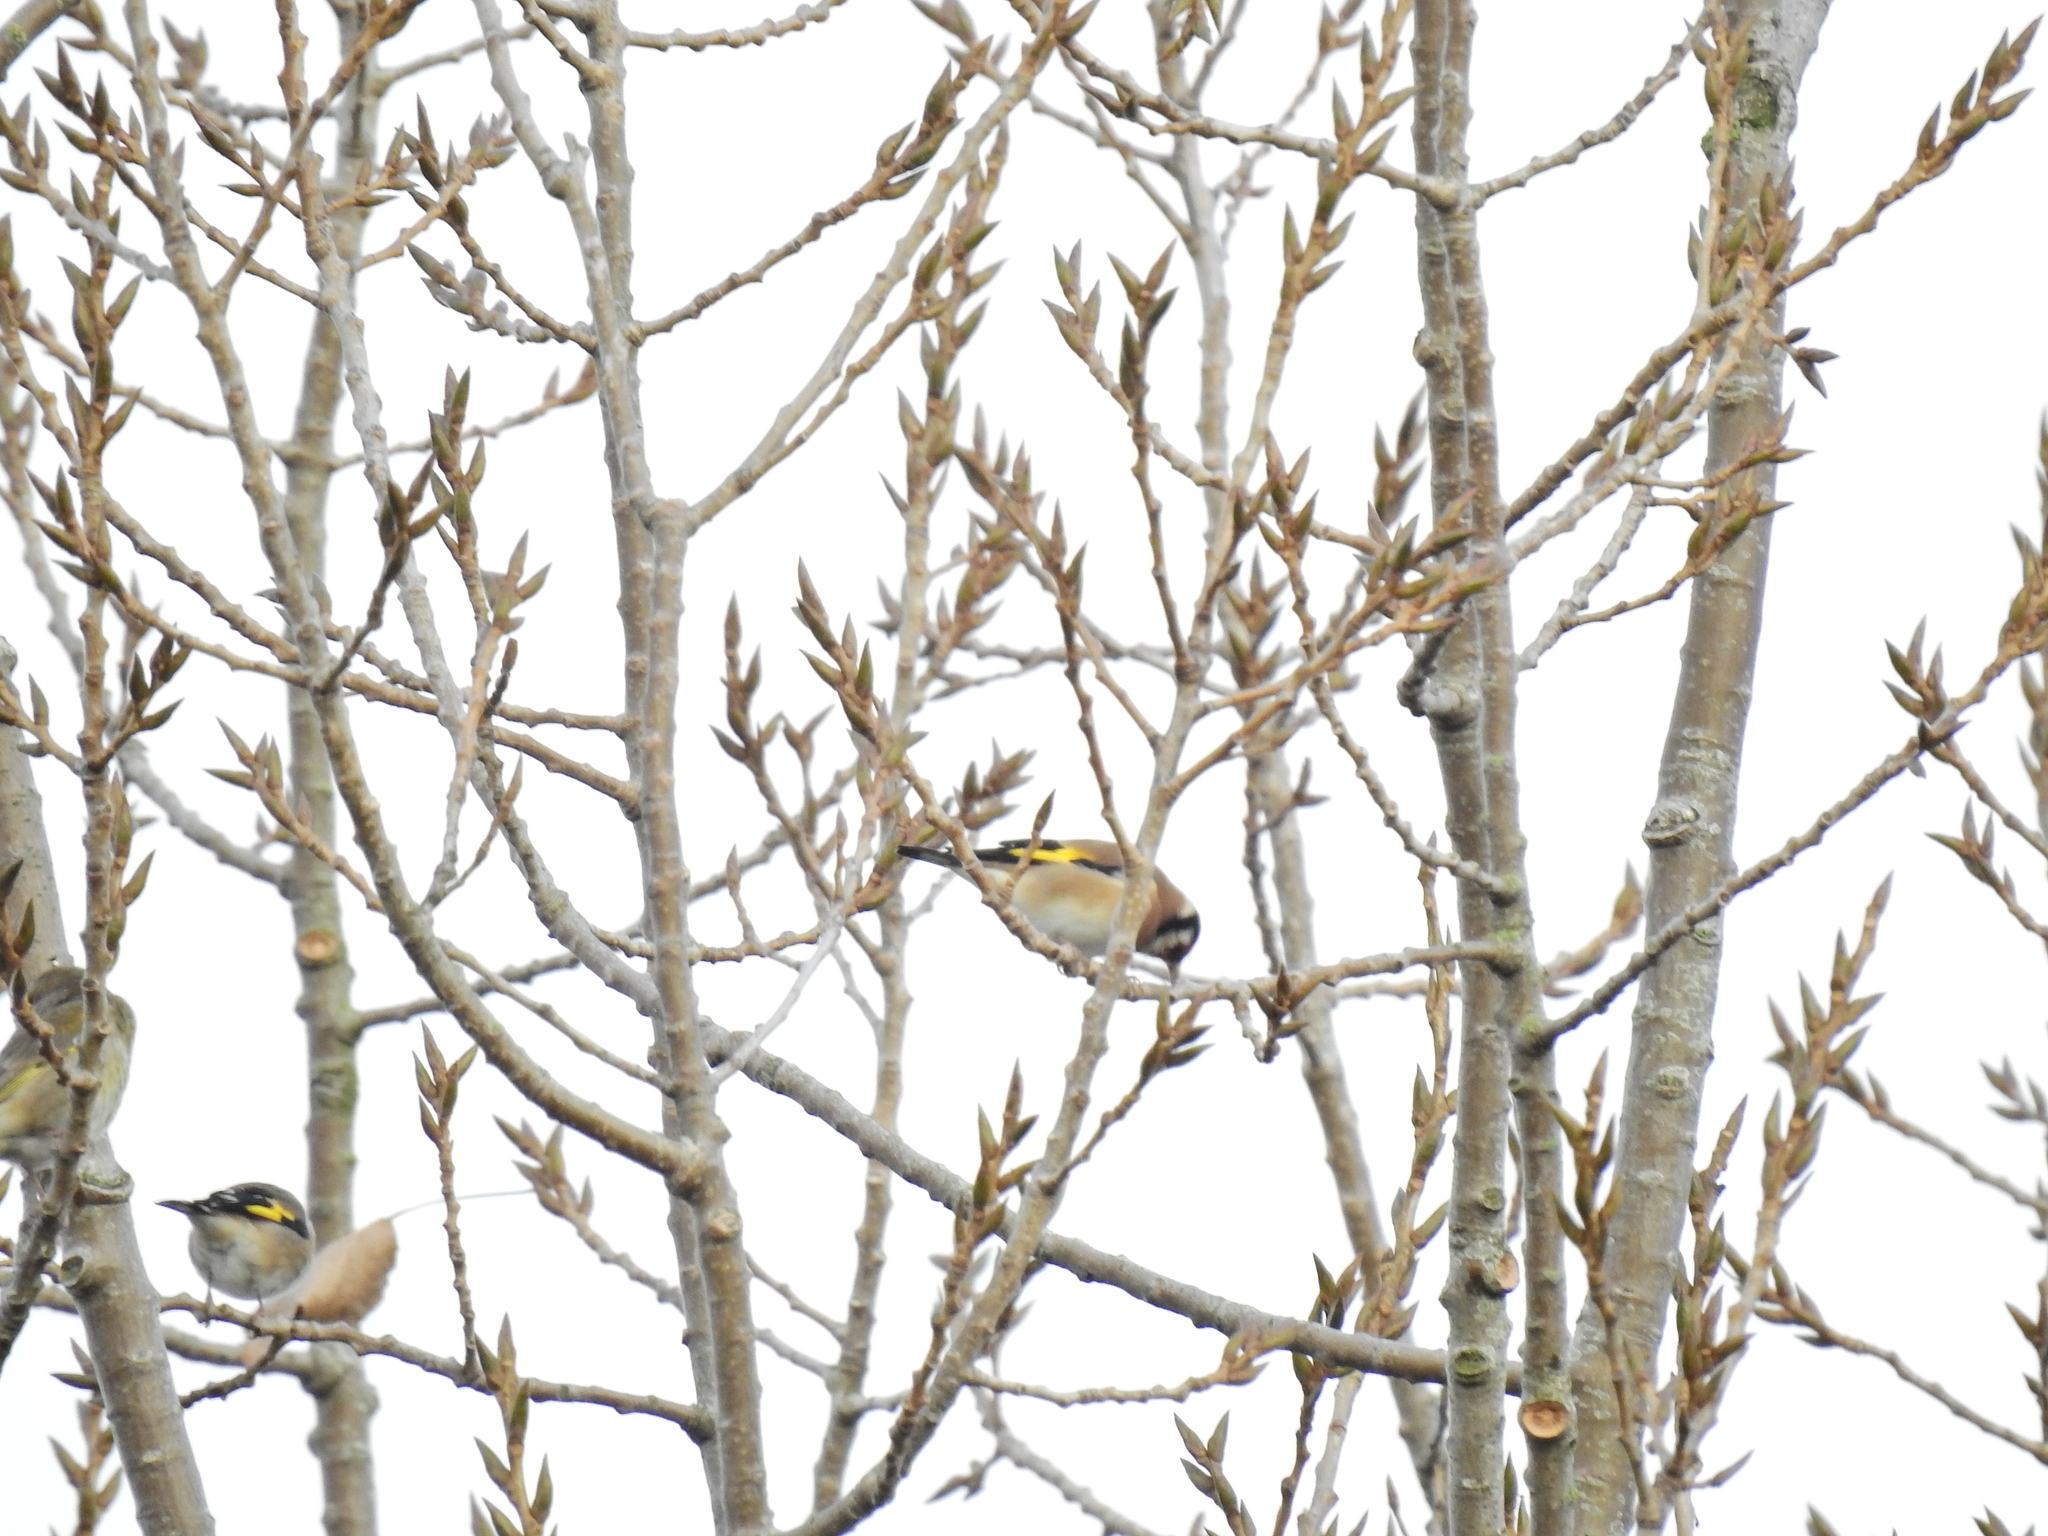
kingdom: Animalia
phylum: Chordata
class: Aves
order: Passeriformes
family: Fringillidae
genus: Carduelis
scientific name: Carduelis carduelis
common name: European goldfinch
